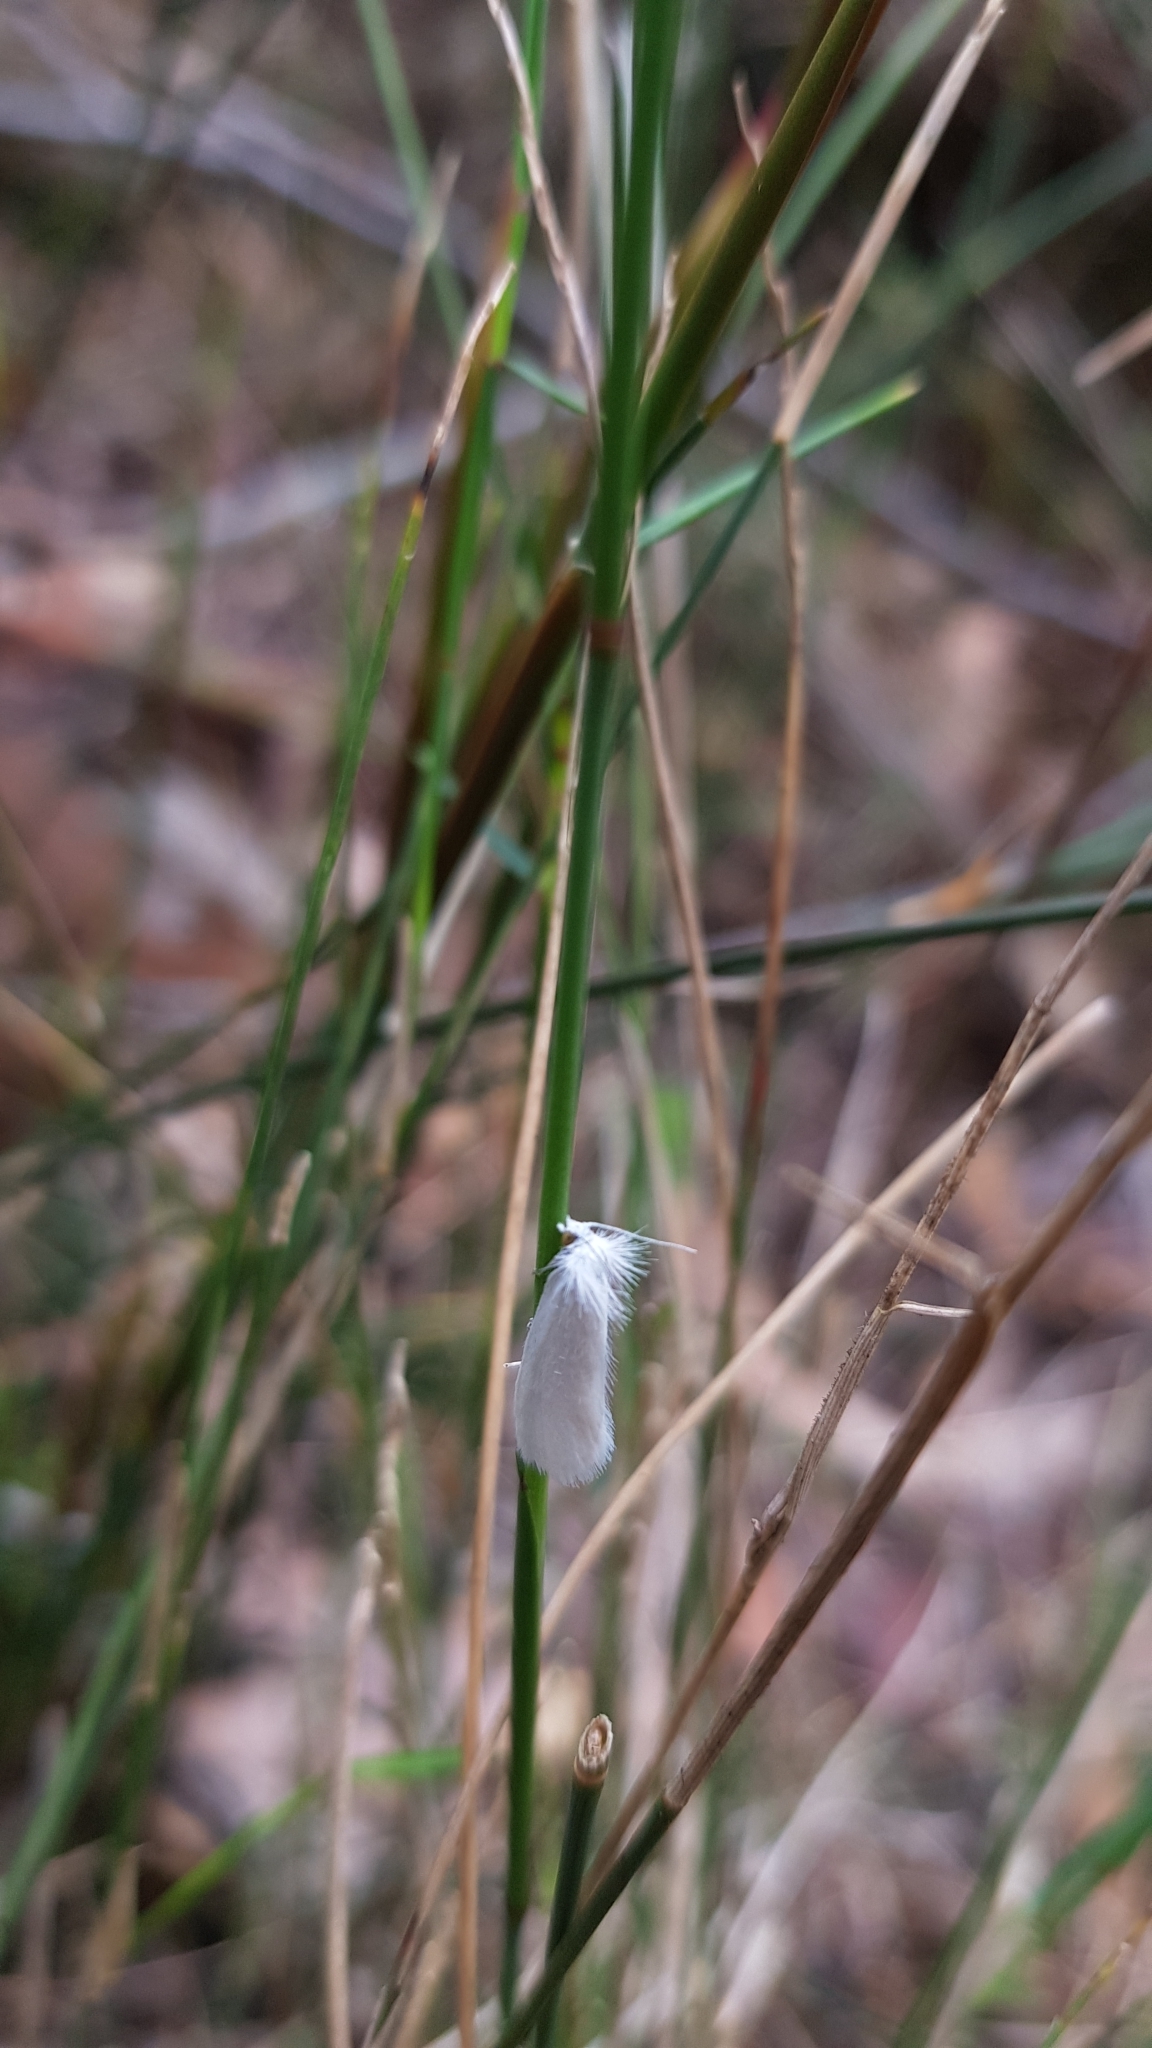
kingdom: Animalia
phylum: Arthropoda
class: Insecta
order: Lepidoptera
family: Crambidae
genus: Tipanaea
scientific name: Tipanaea patulella
